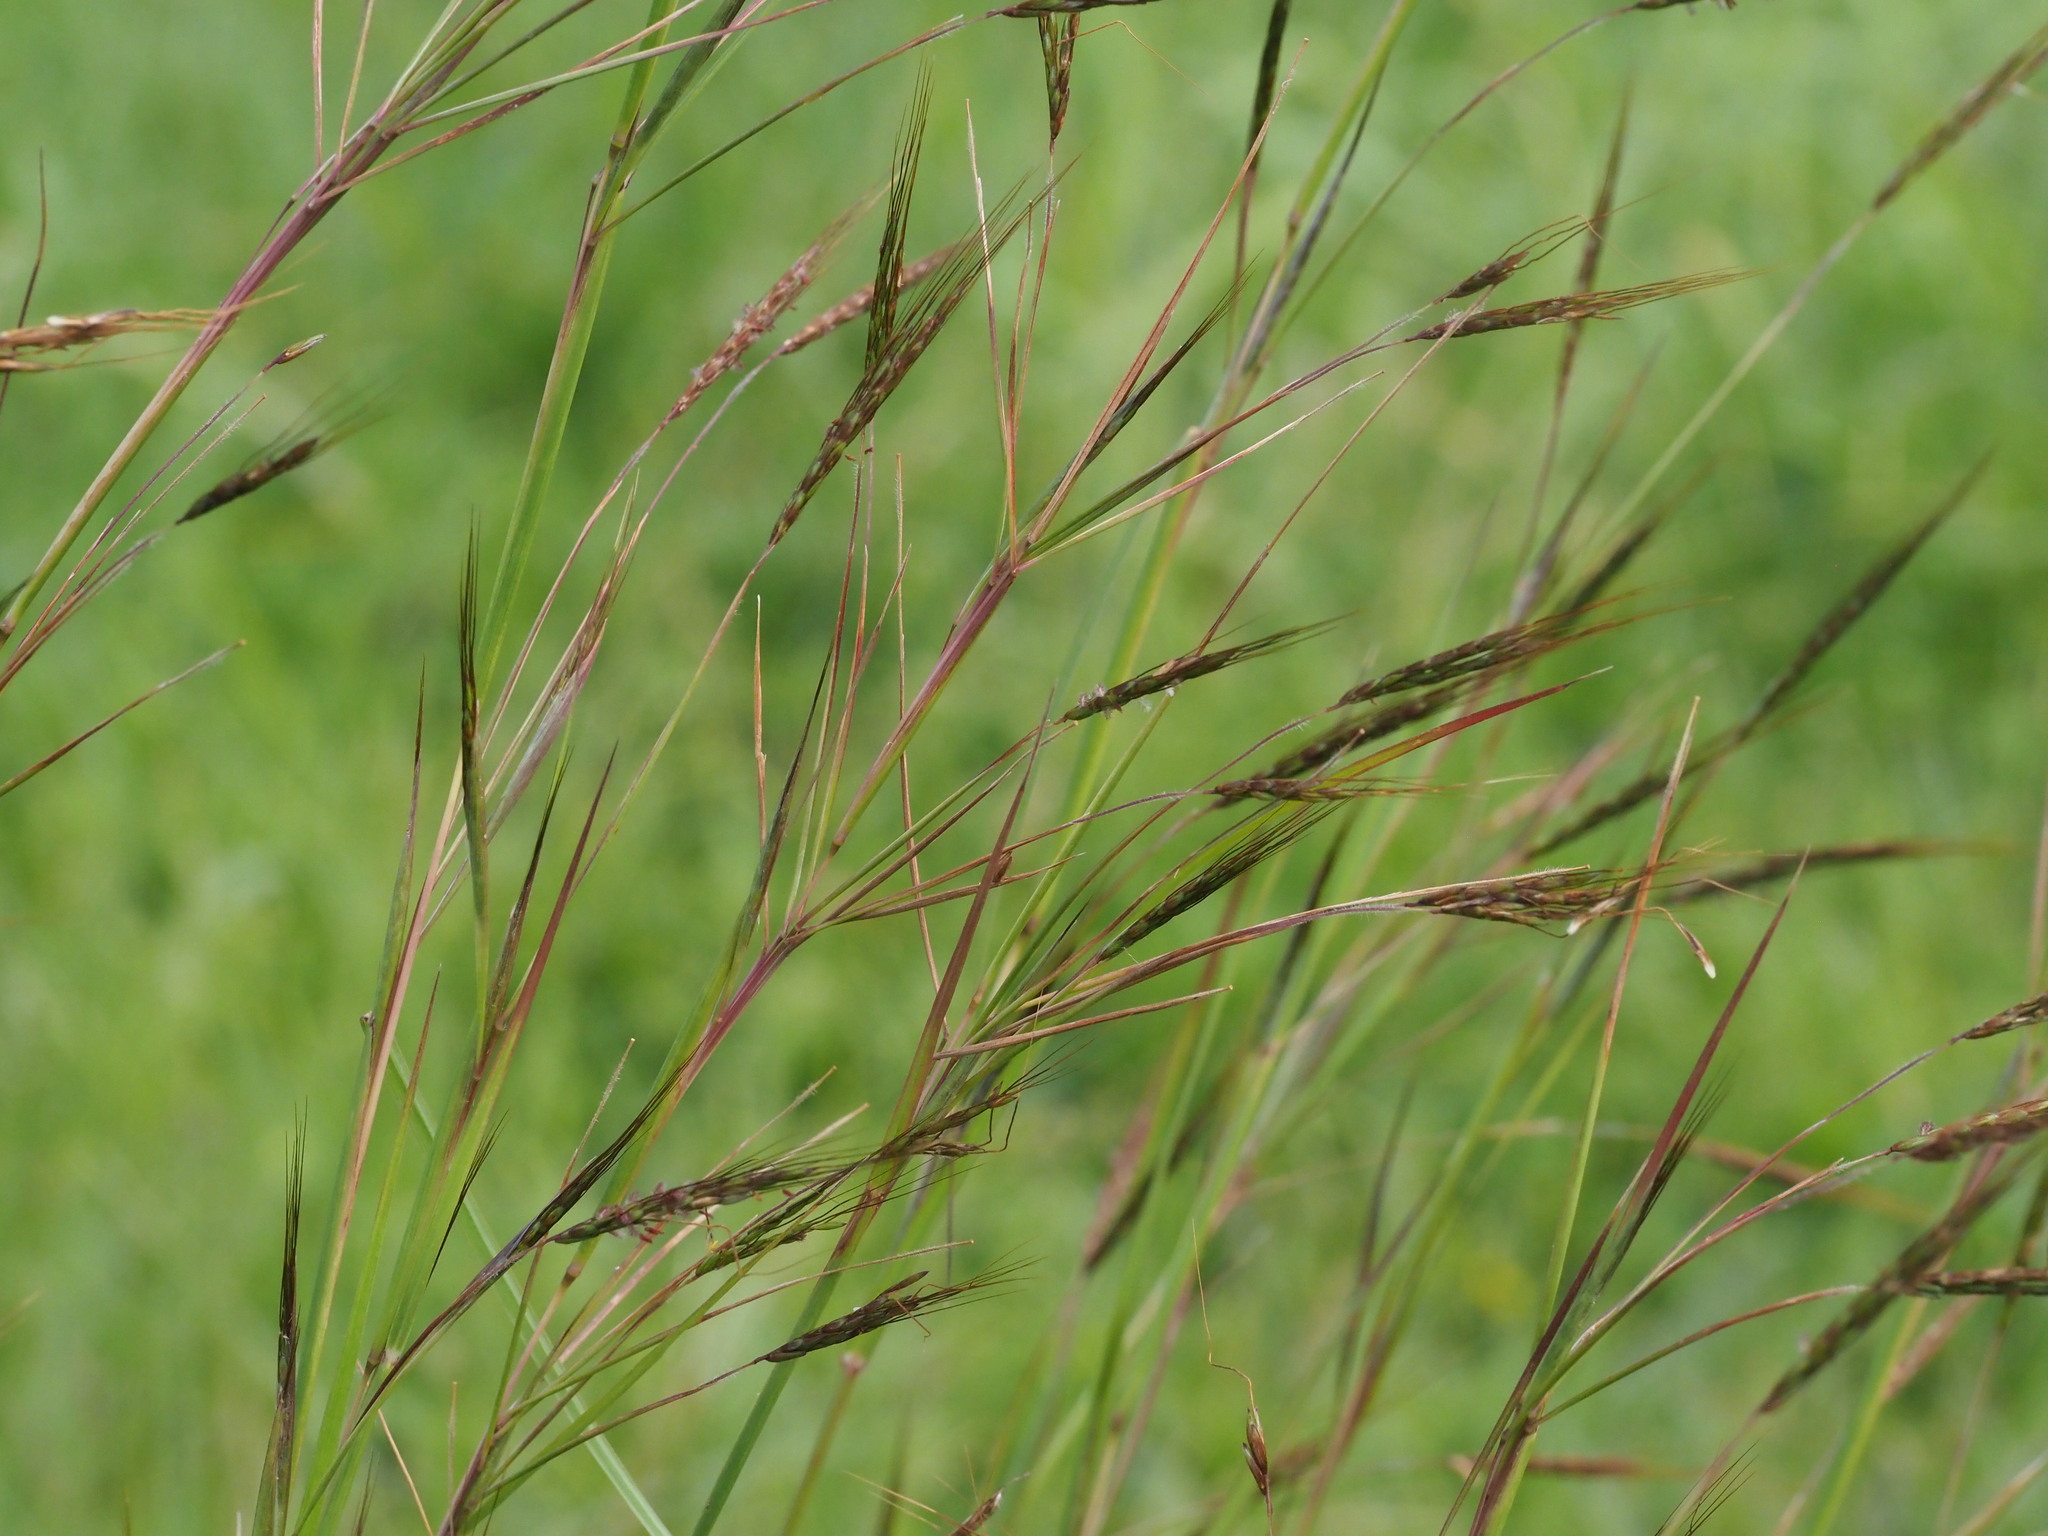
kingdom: Plantae
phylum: Tracheophyta
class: Liliopsida
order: Poales
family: Poaceae
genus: Hyparrhenia
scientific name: Hyparrhenia rufa
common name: Jaraguagrass
